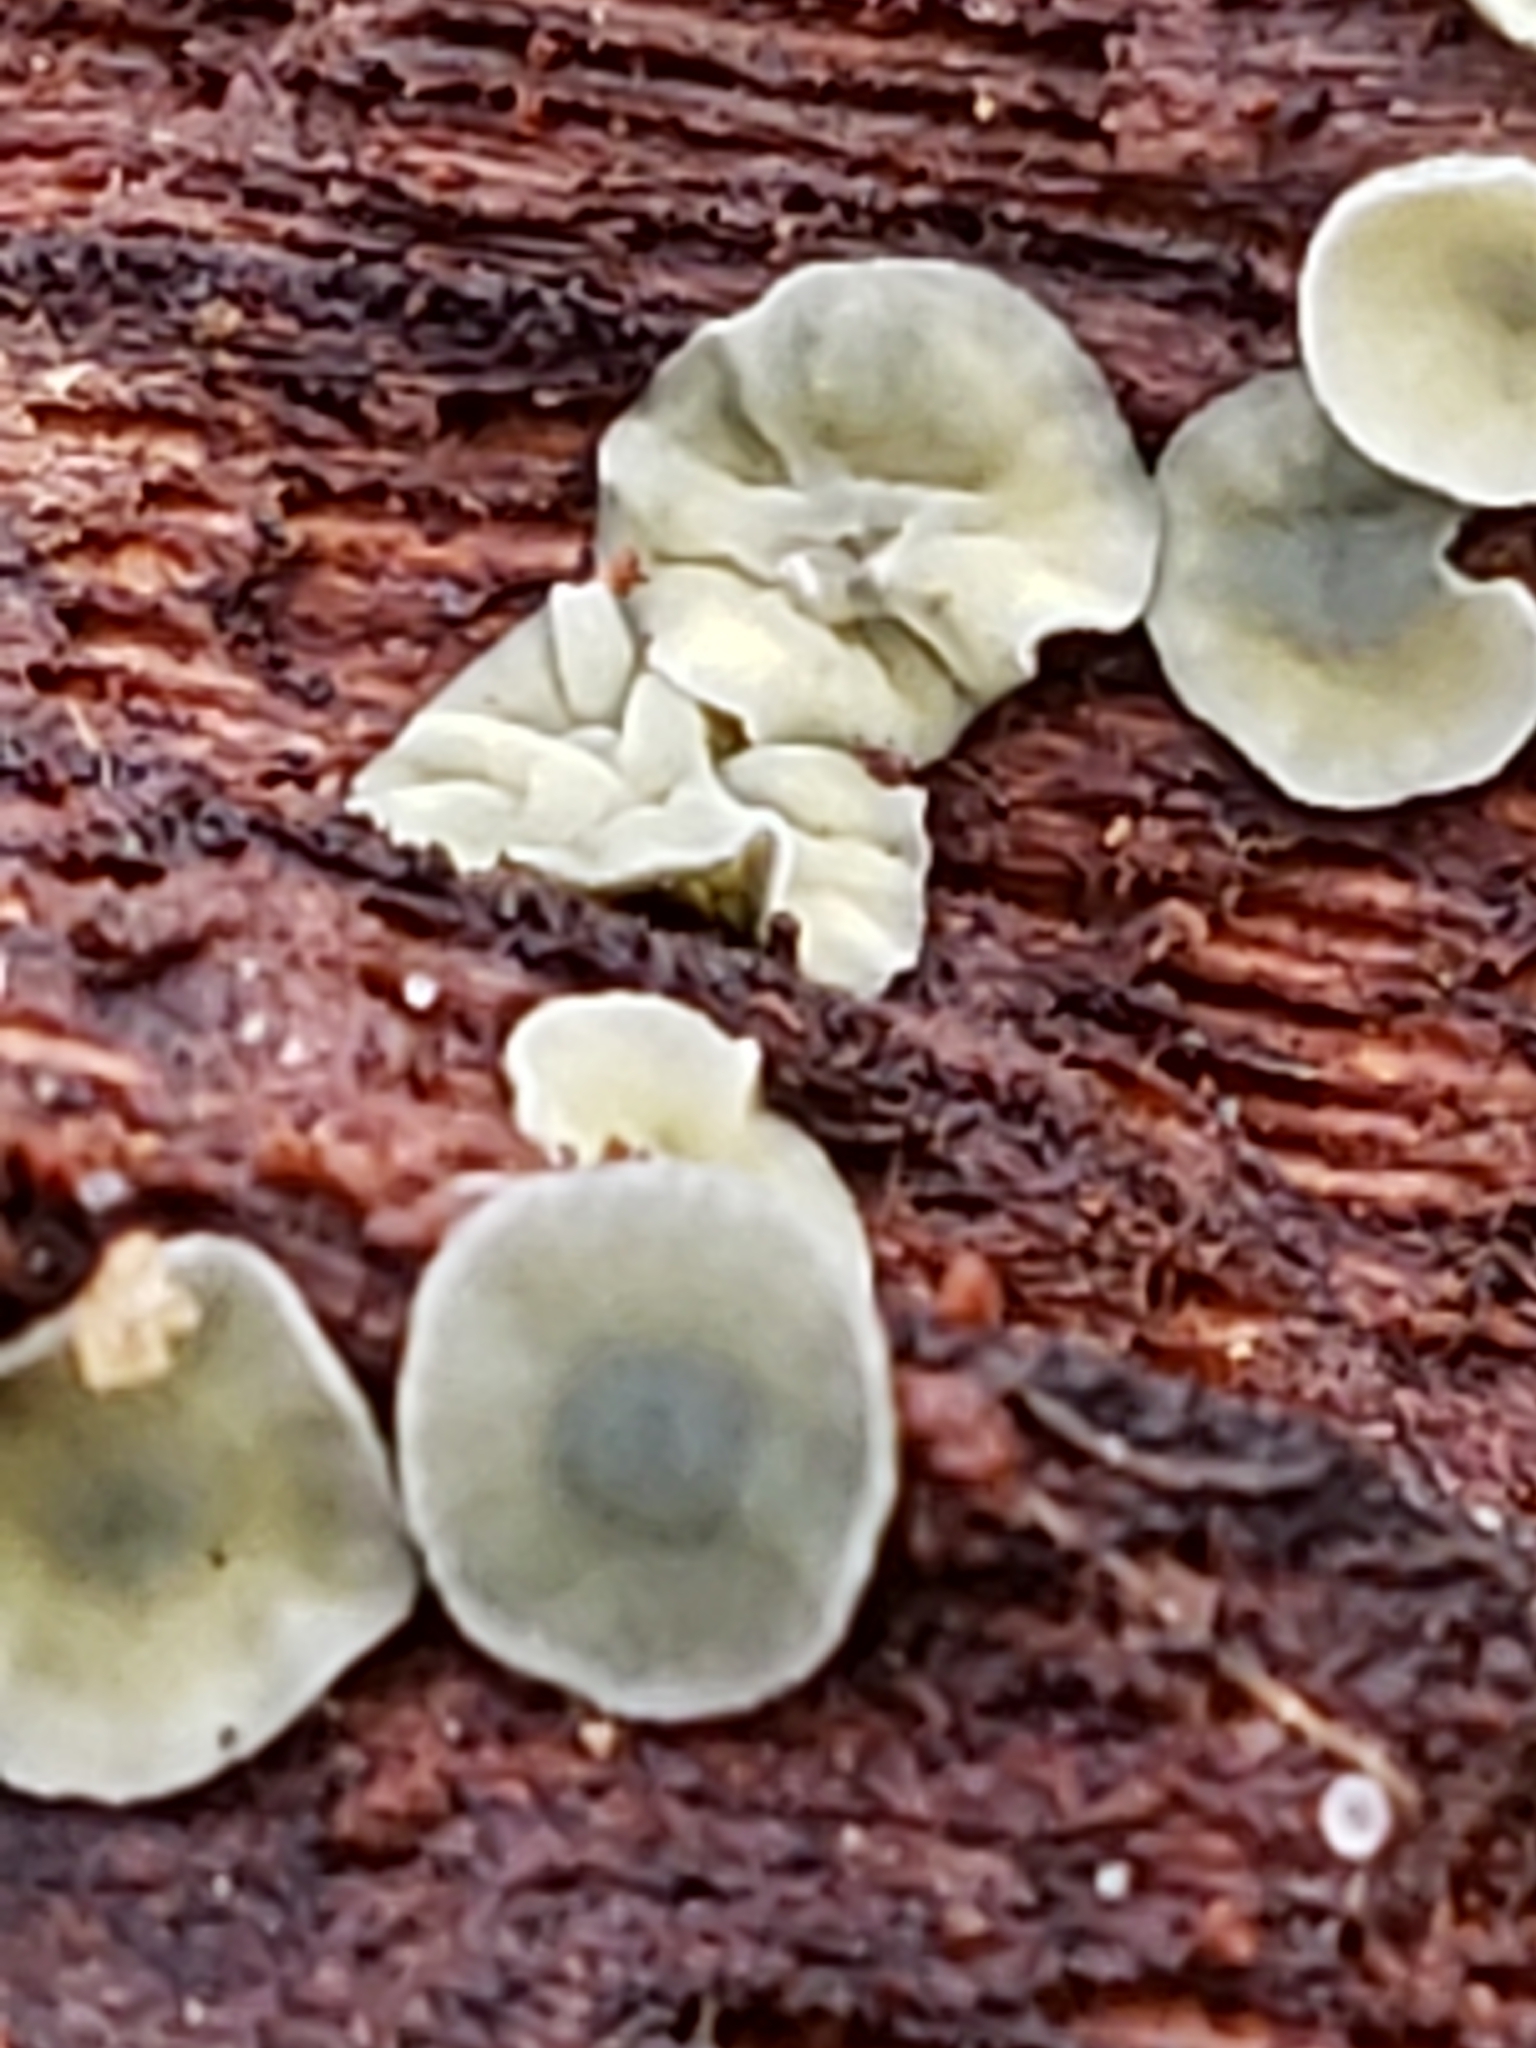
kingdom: Fungi
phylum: Ascomycota
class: Leotiomycetes
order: Helotiales
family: Chlorospleniaceae
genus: Chlorosplenium
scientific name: Chlorosplenium chlora
